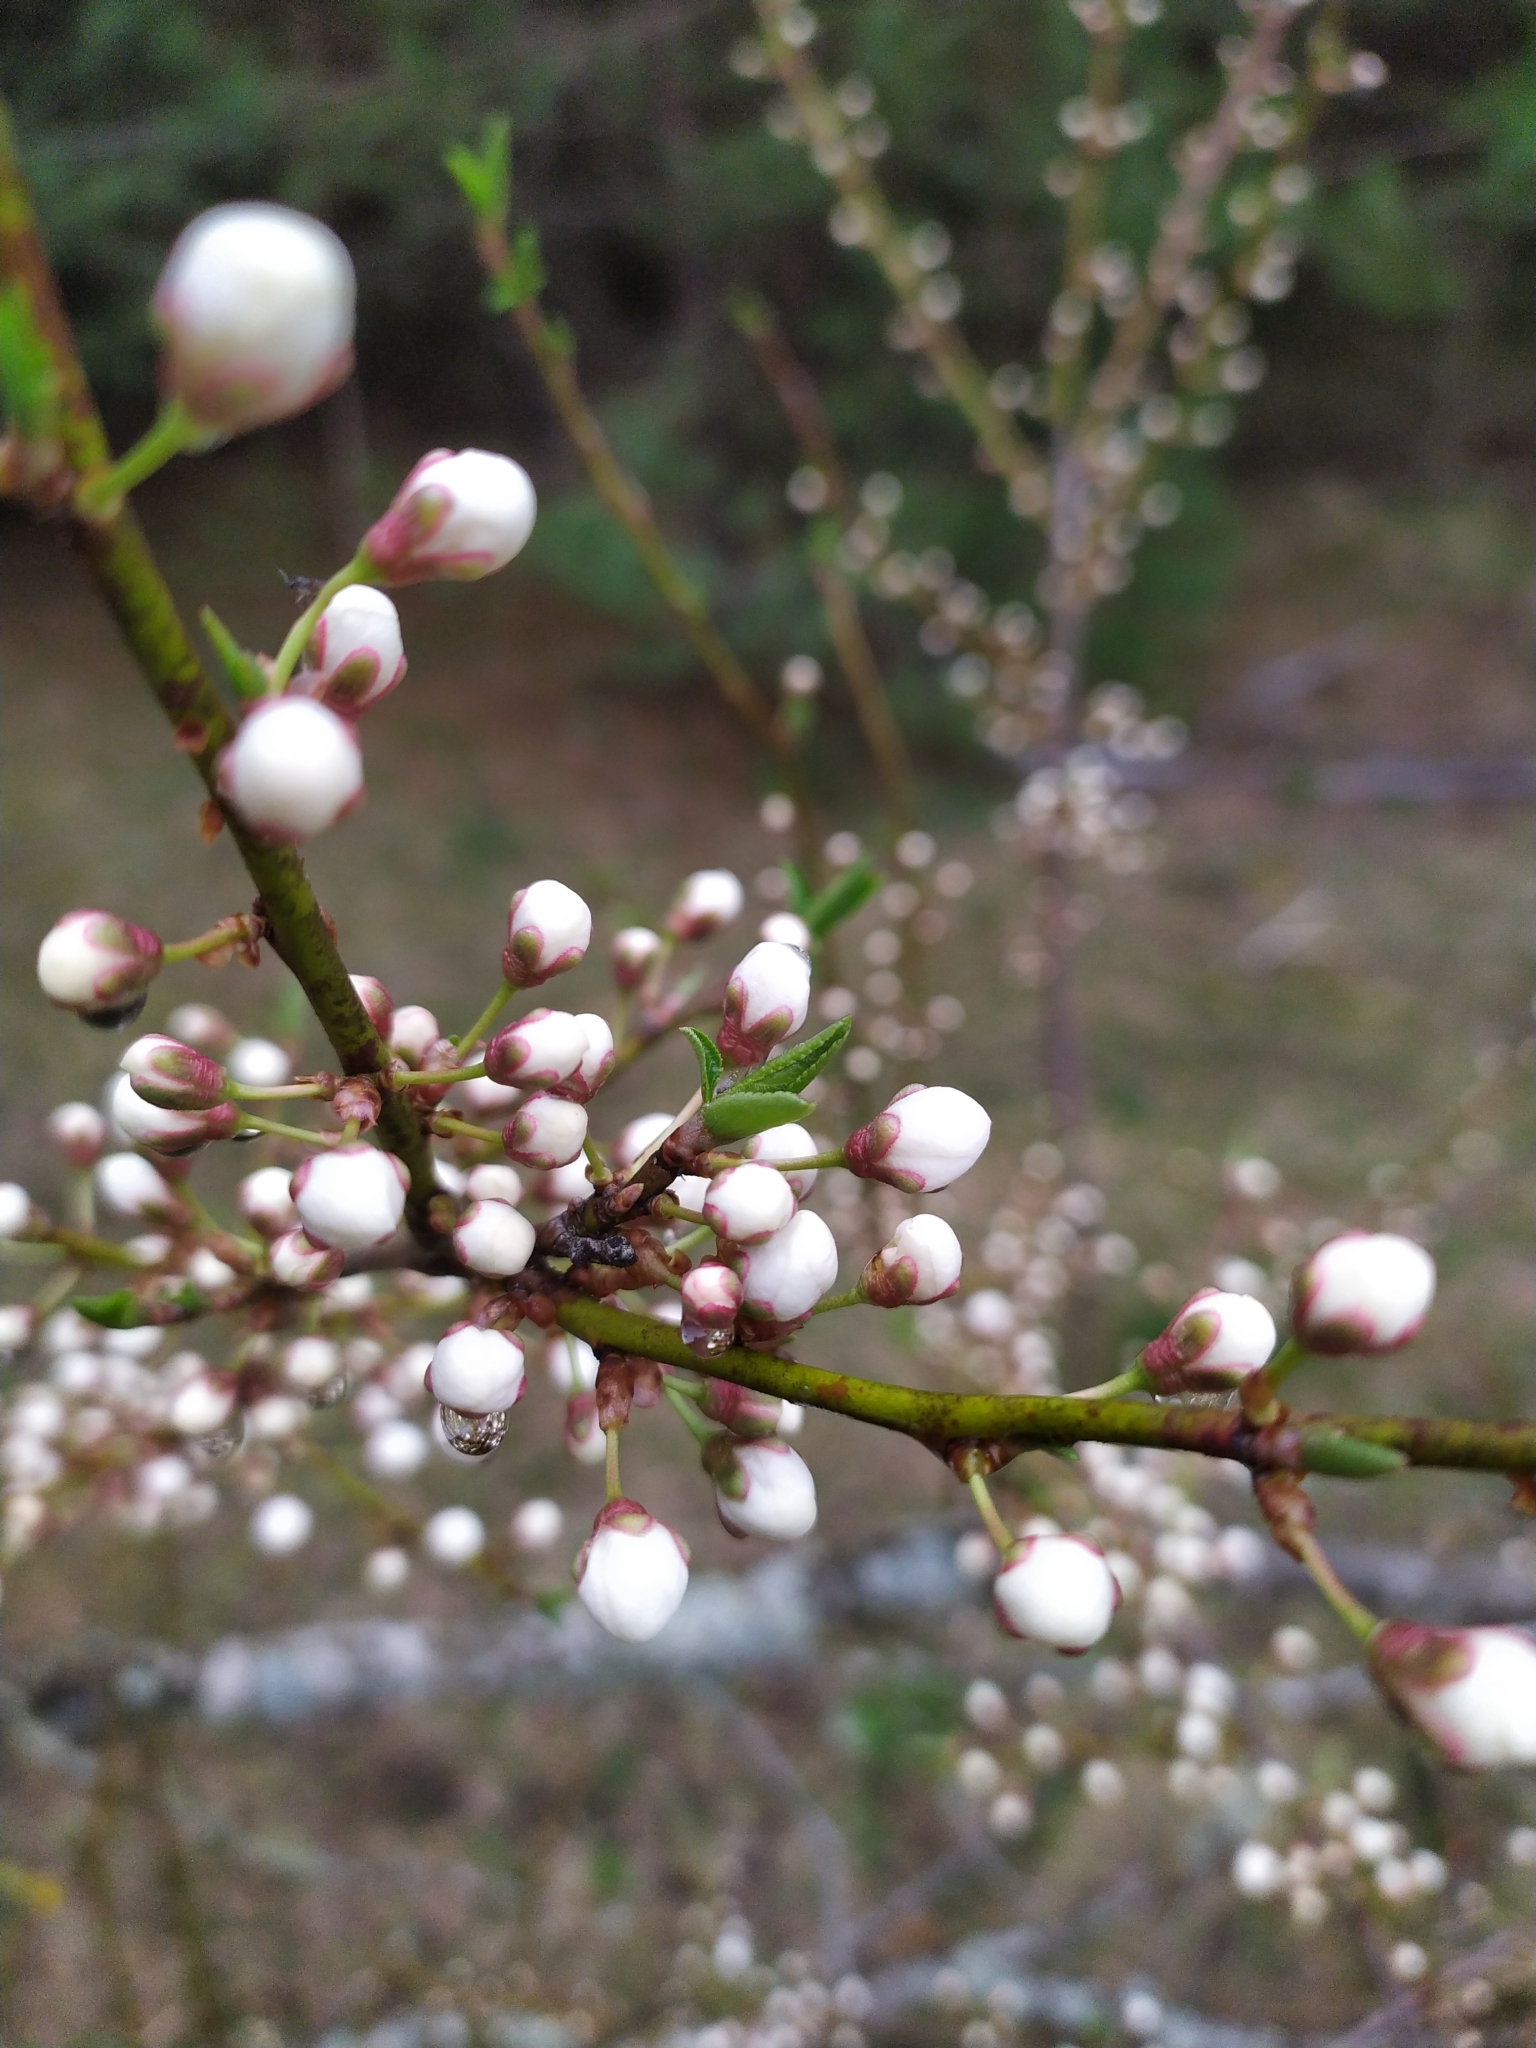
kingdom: Plantae
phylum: Tracheophyta
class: Magnoliopsida
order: Rosales
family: Rosaceae
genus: Prunus
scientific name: Prunus cerasifera
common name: Cherry plum
